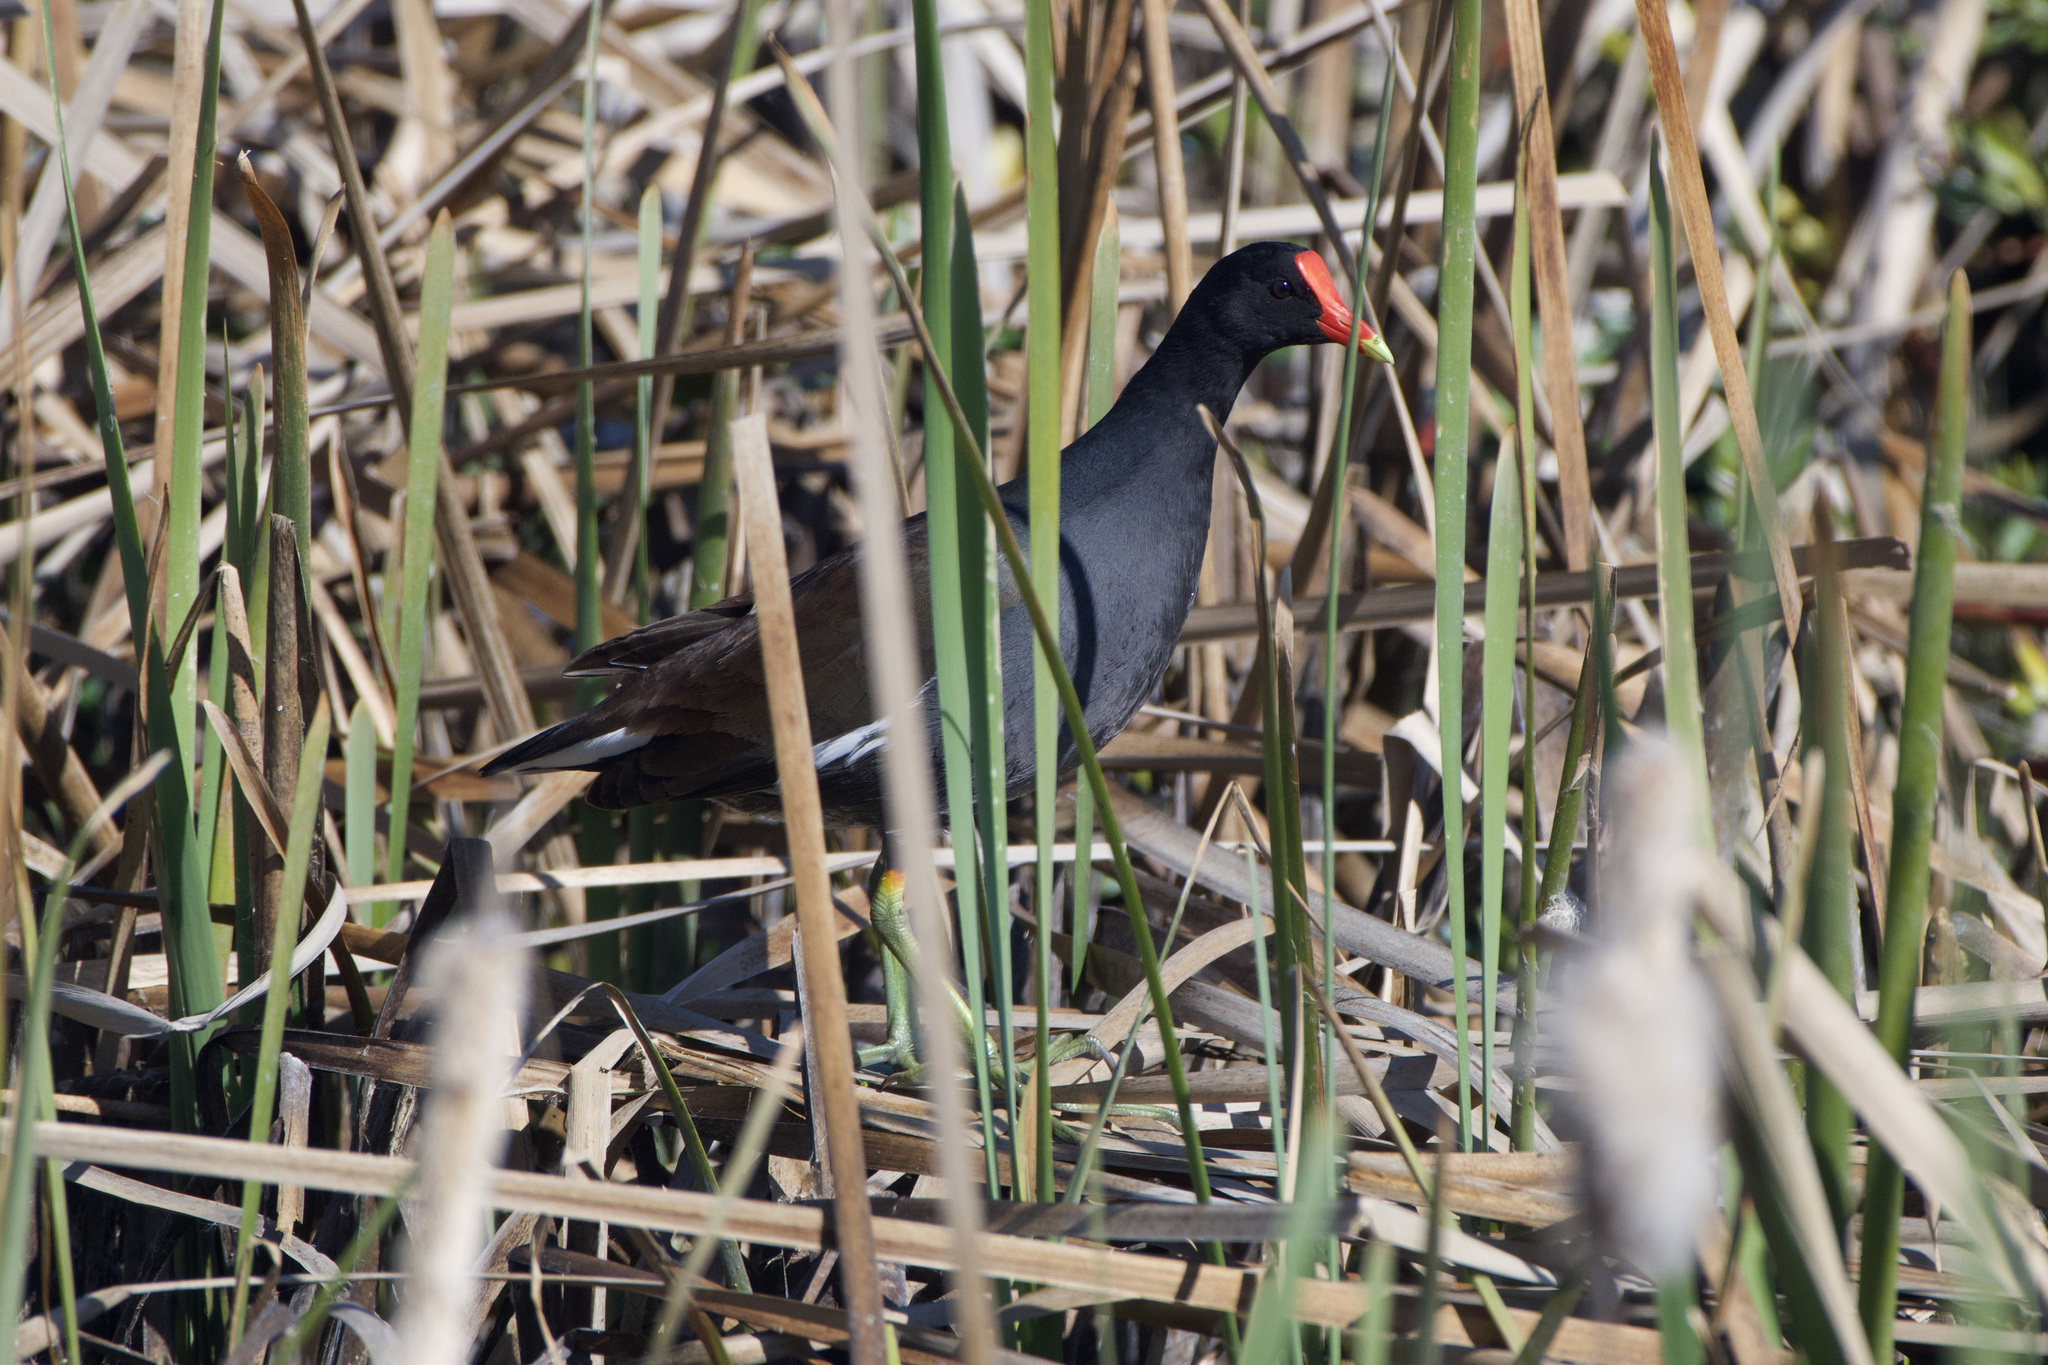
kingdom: Animalia
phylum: Chordata
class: Aves
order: Gruiformes
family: Rallidae
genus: Gallinula
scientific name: Gallinula chloropus
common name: Common moorhen
